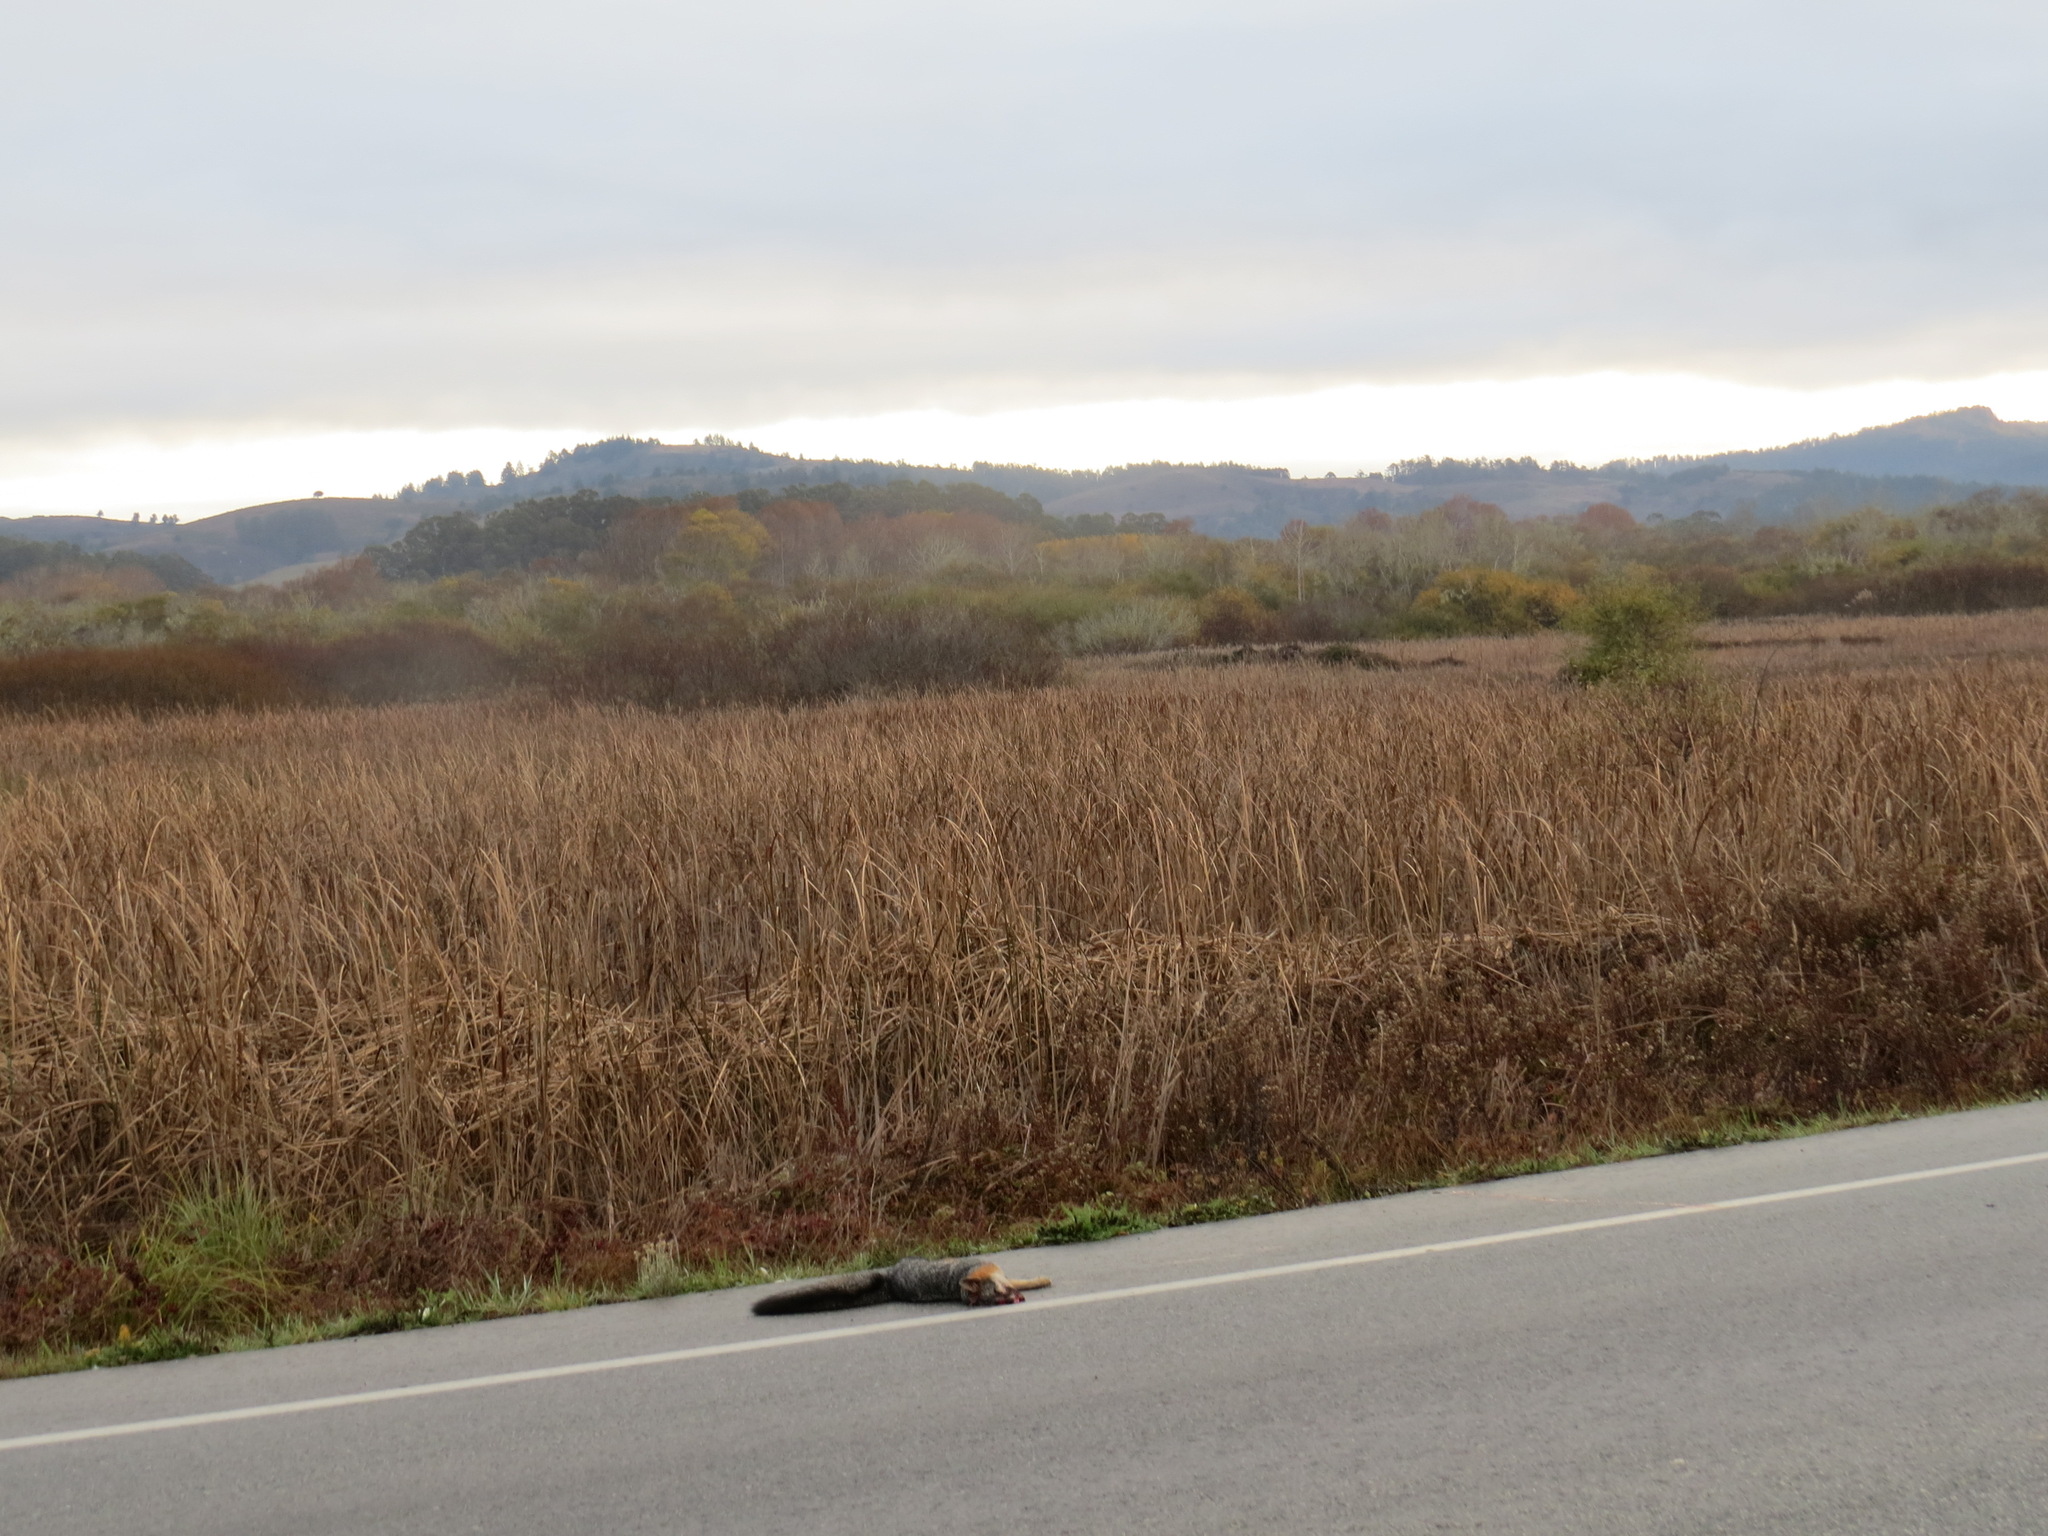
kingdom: Animalia
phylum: Chordata
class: Mammalia
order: Carnivora
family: Canidae
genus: Urocyon
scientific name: Urocyon cinereoargenteus
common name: Gray fox
